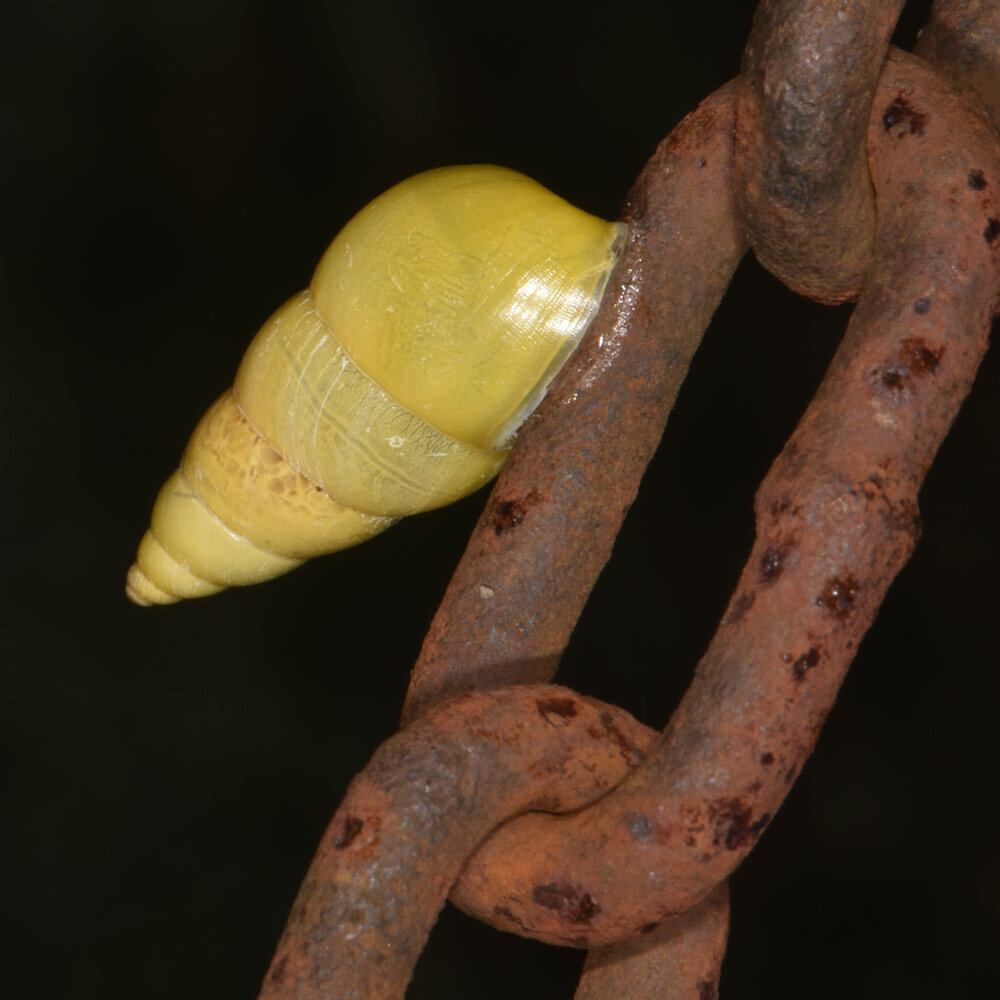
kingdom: Animalia
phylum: Mollusca
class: Gastropoda
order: Stylommatophora
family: Bulimulidae
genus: Drymaeus
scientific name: Drymaeus sulphureus
